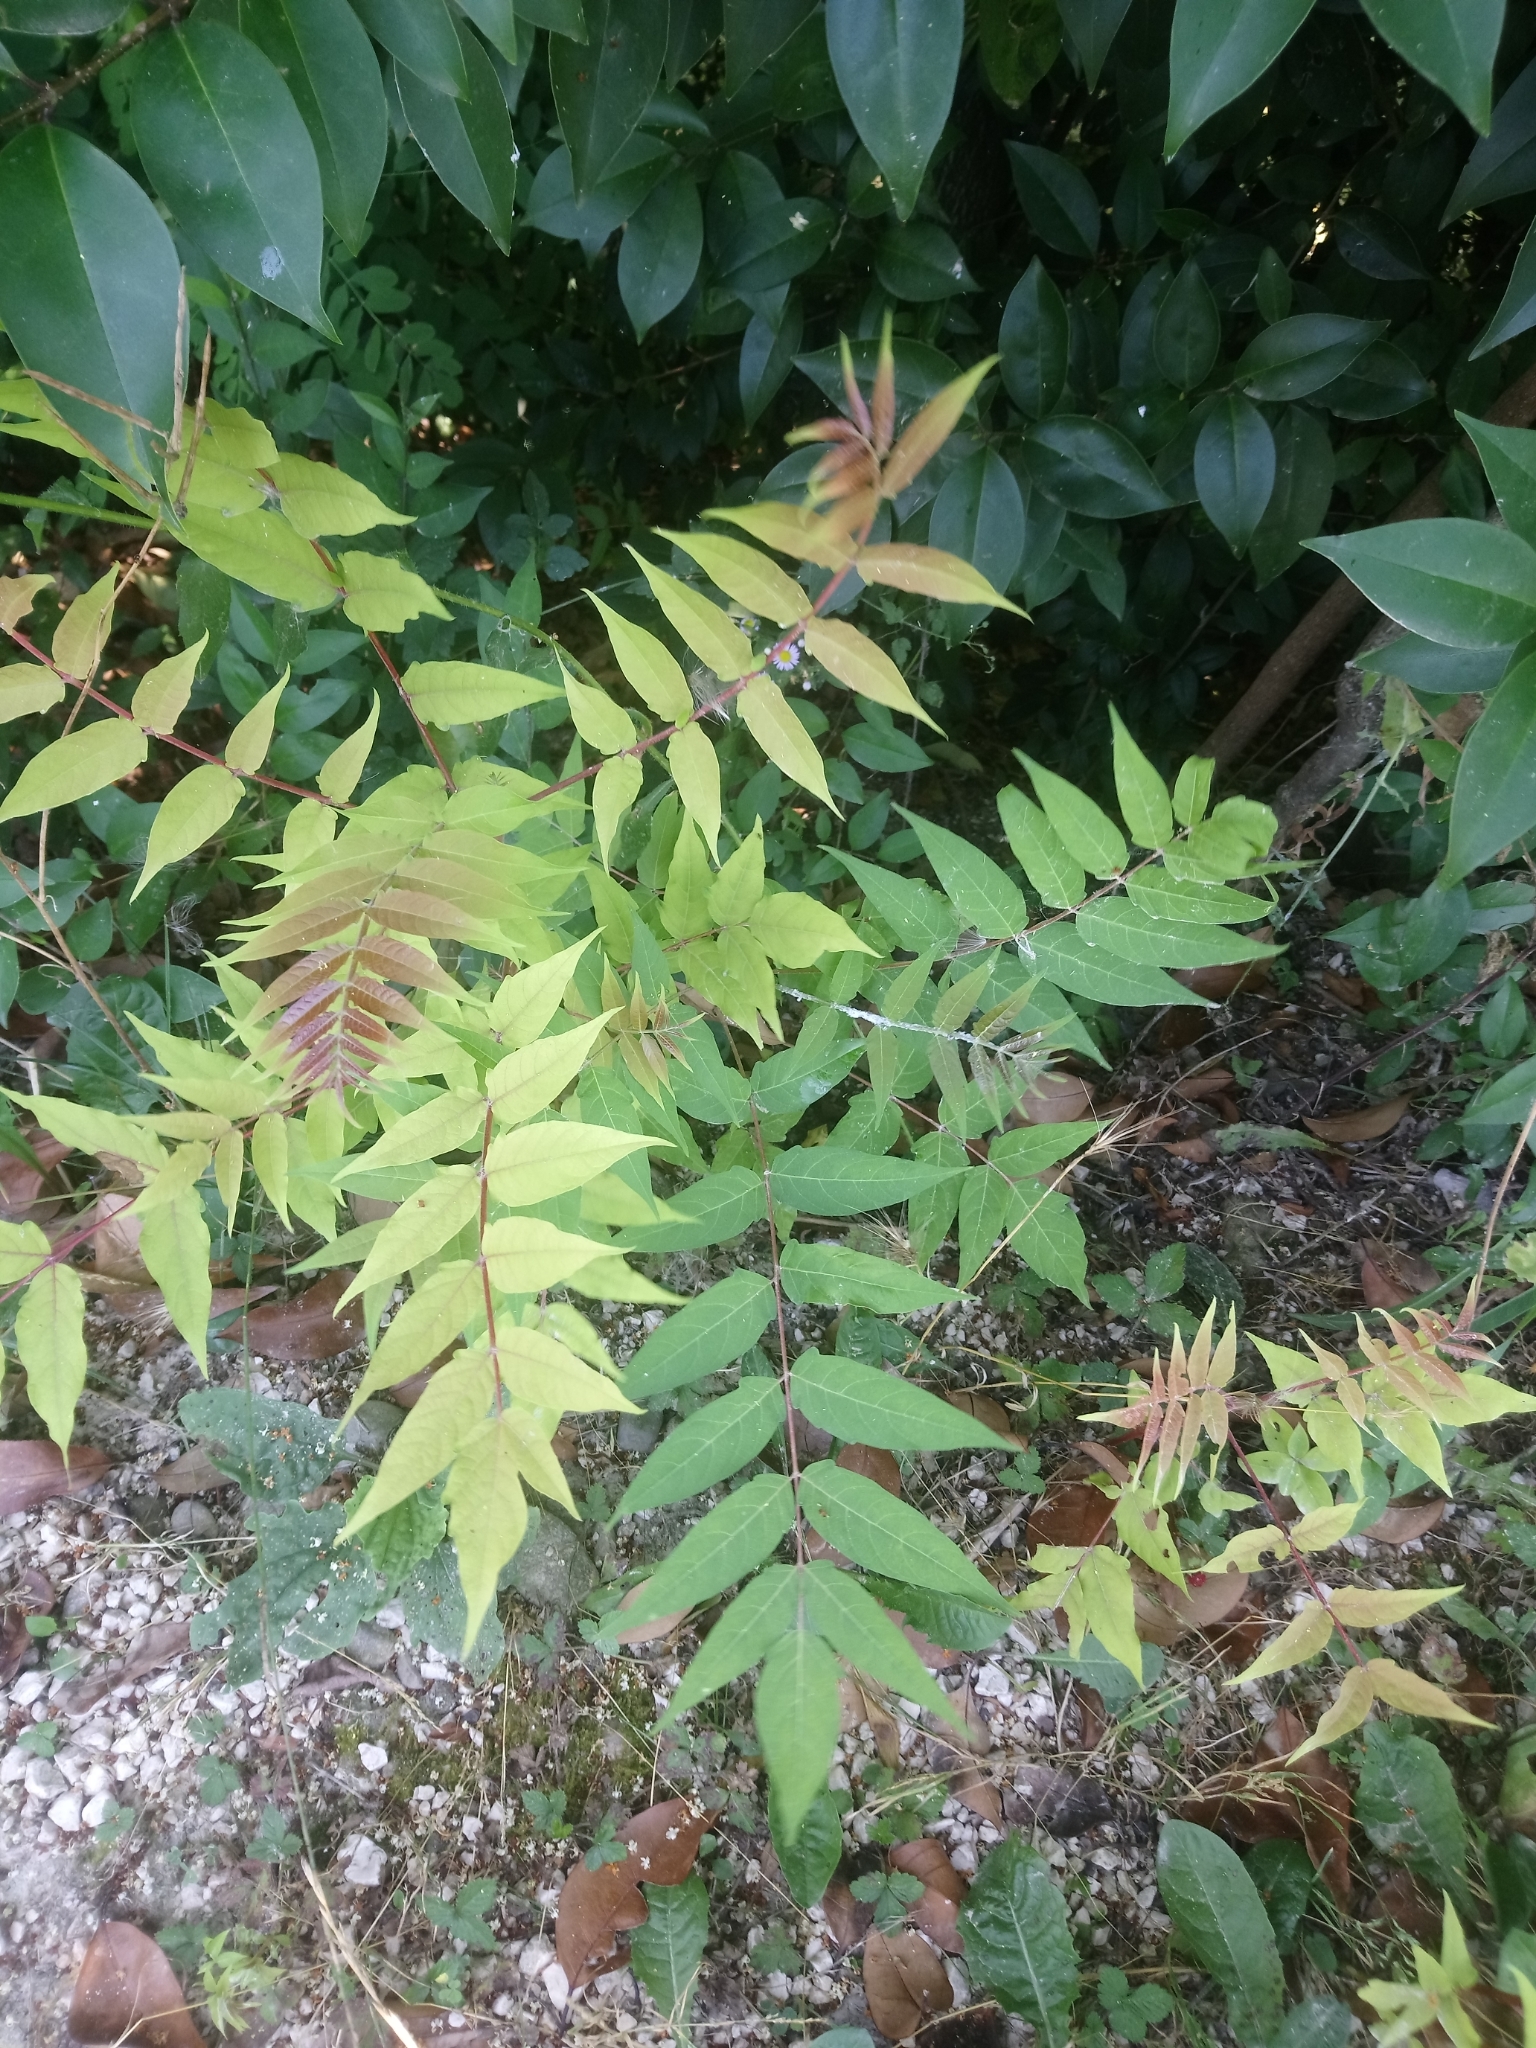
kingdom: Plantae
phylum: Tracheophyta
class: Magnoliopsida
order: Sapindales
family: Simaroubaceae
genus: Ailanthus
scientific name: Ailanthus altissima
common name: Tree-of-heaven
